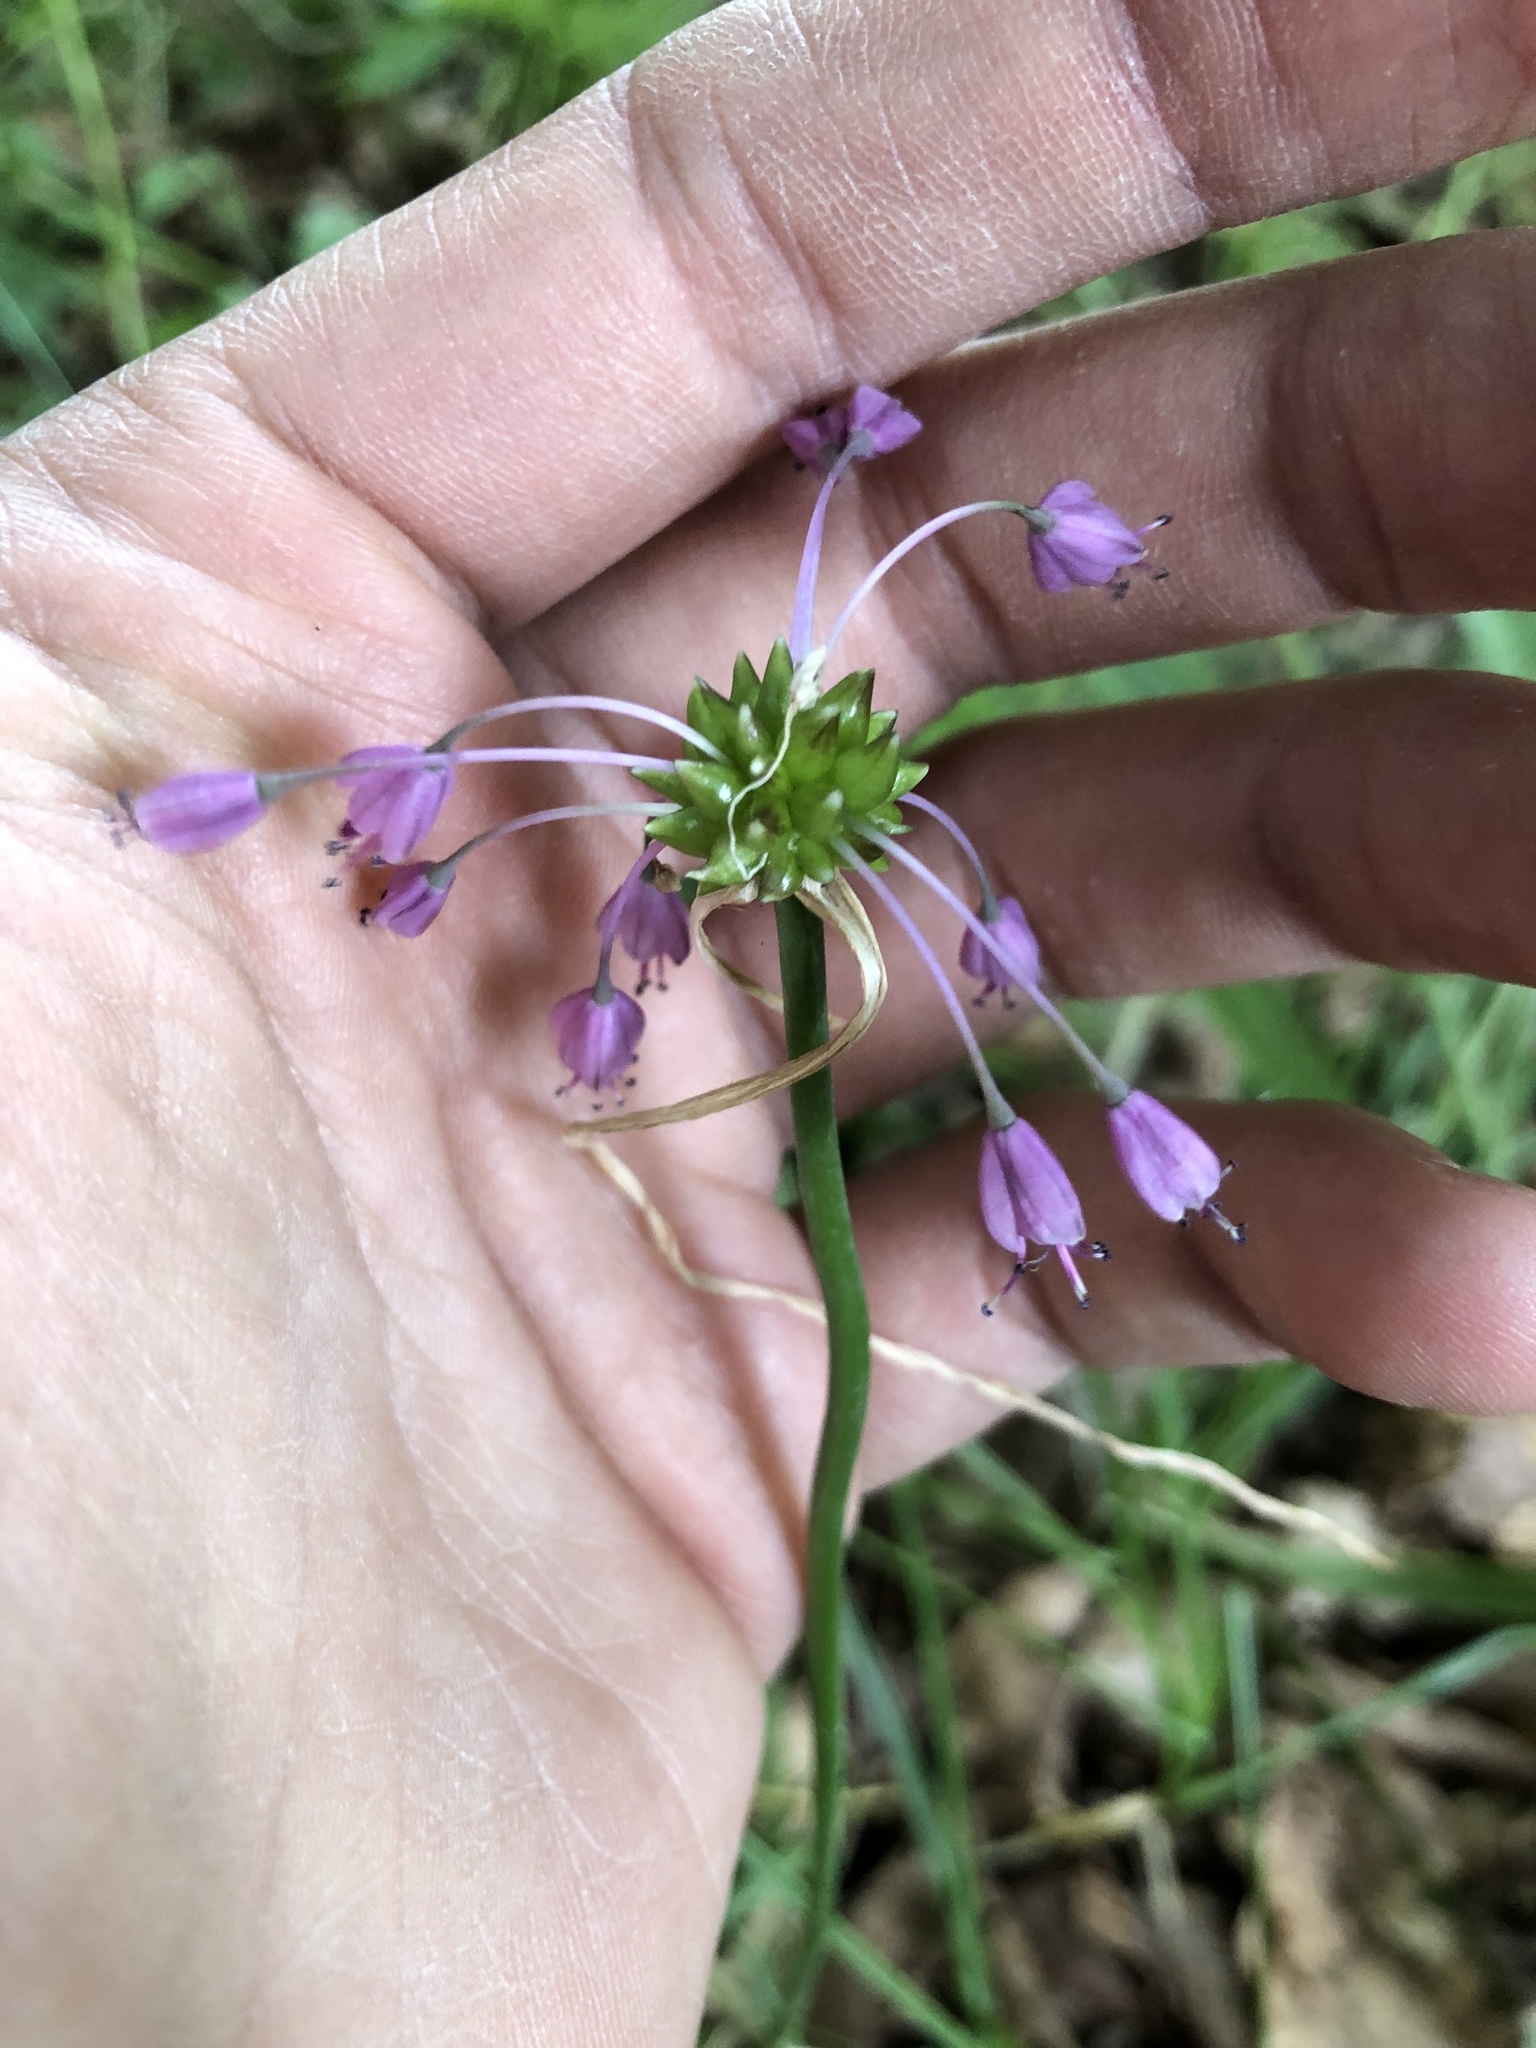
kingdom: Plantae
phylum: Tracheophyta
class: Liliopsida
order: Asparagales
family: Amaryllidaceae
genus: Allium
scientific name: Allium carinatum
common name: Keeled garlic
